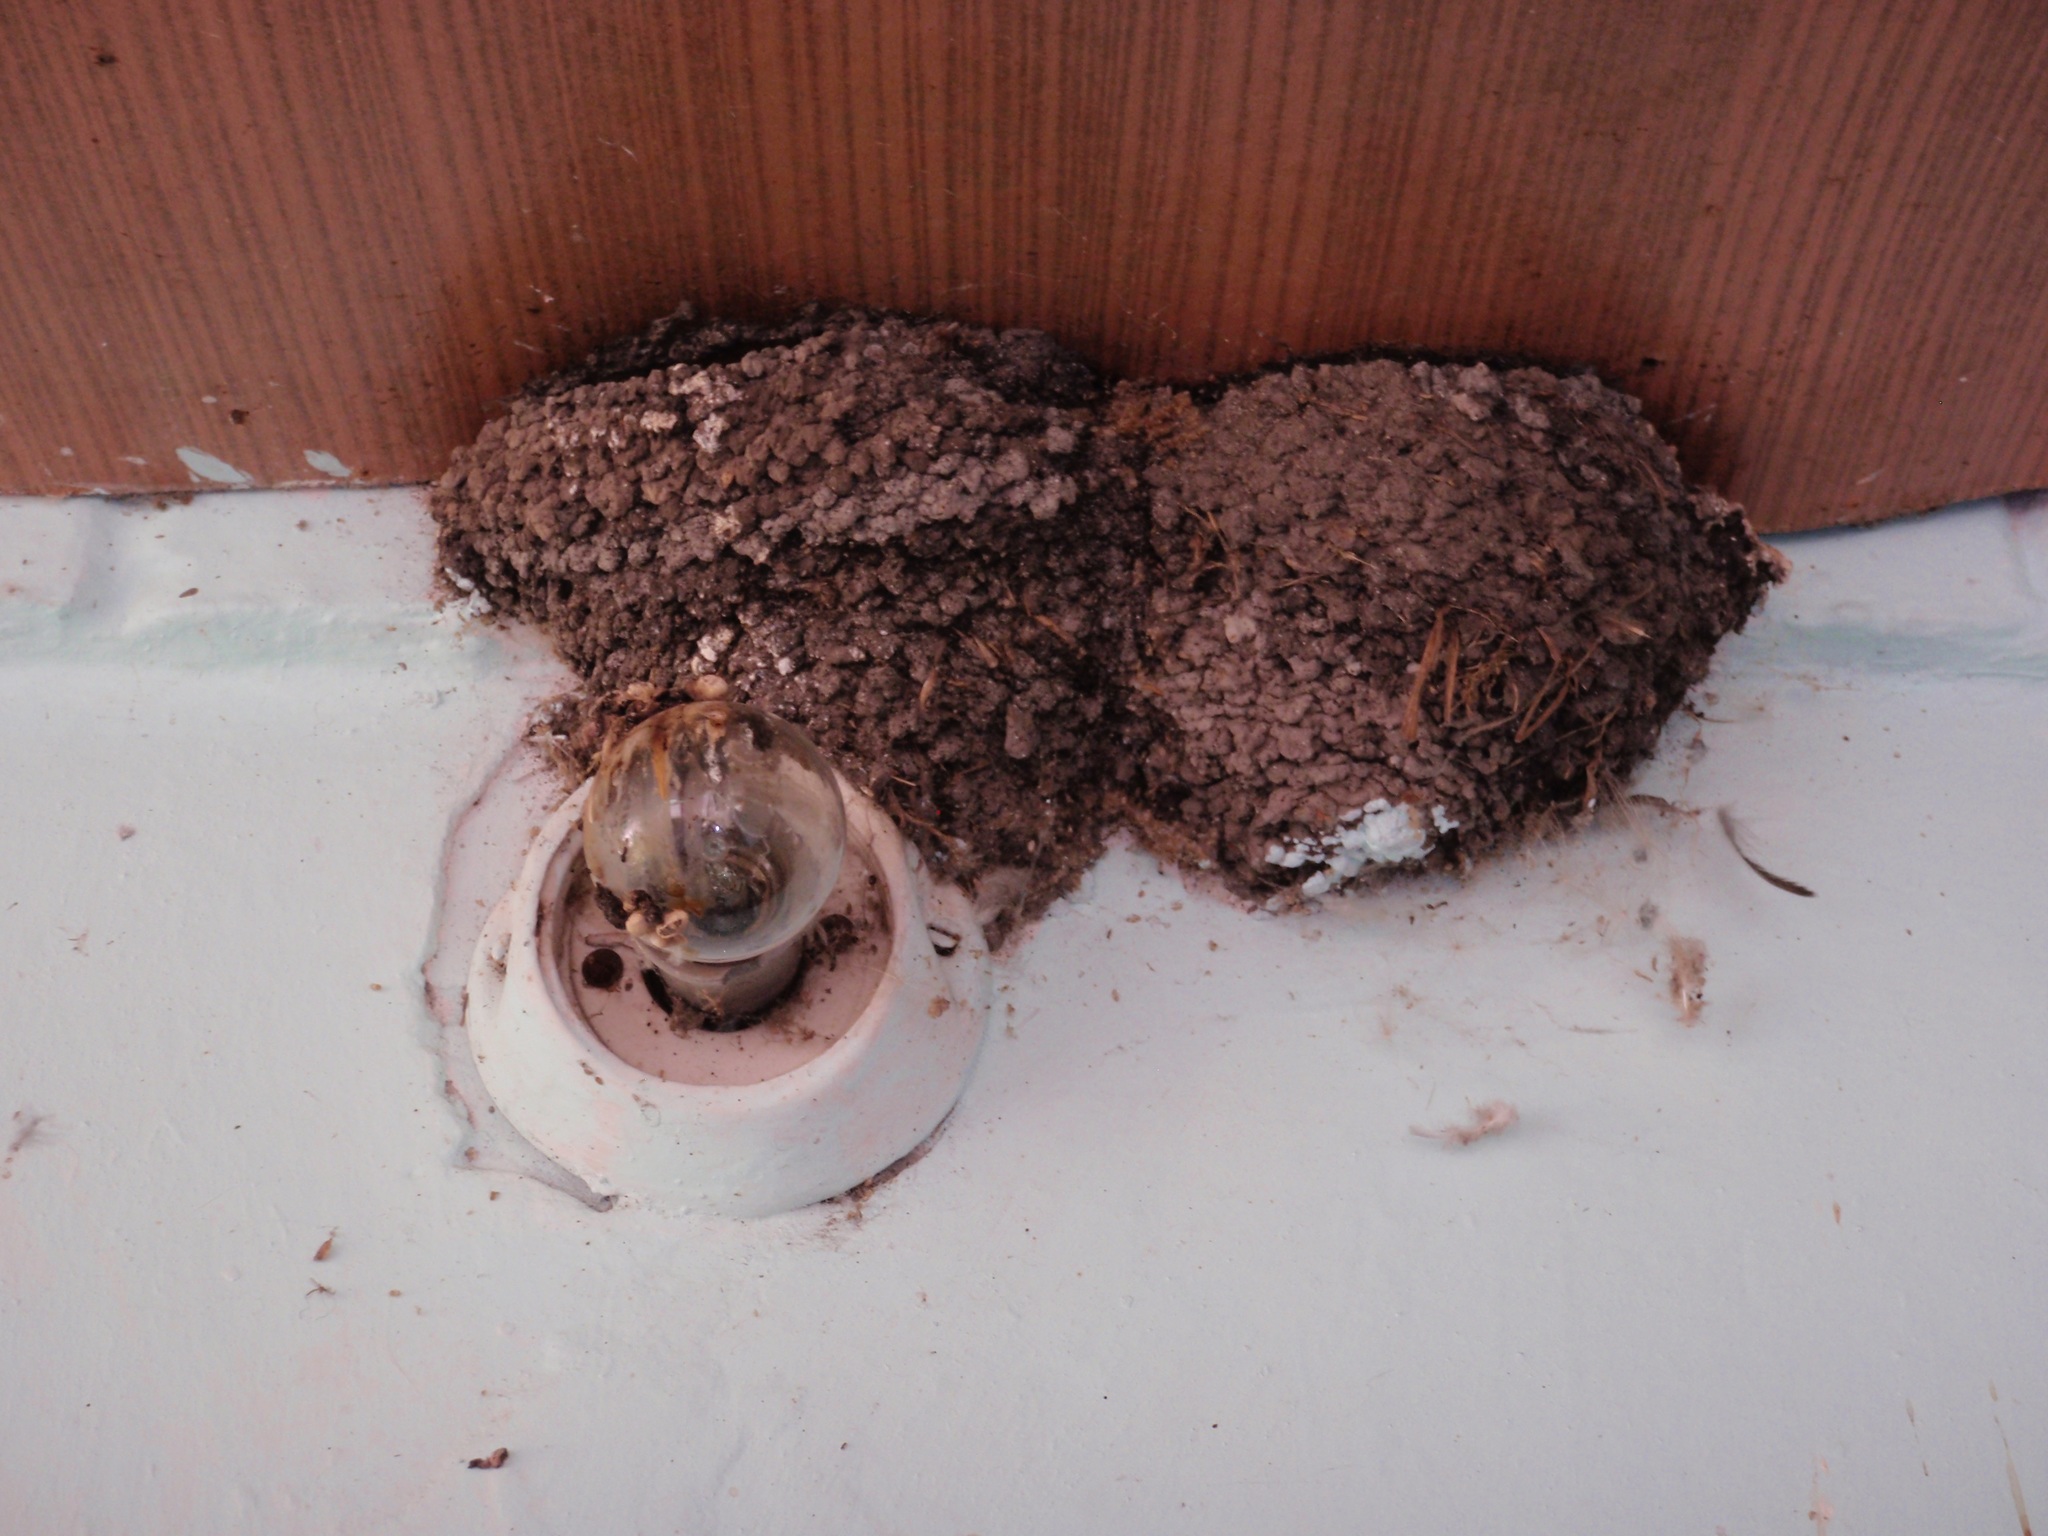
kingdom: Animalia
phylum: Chordata
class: Aves
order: Passeriformes
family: Hirundinidae
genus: Hirundo
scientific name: Hirundo rustica
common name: Barn swallow
